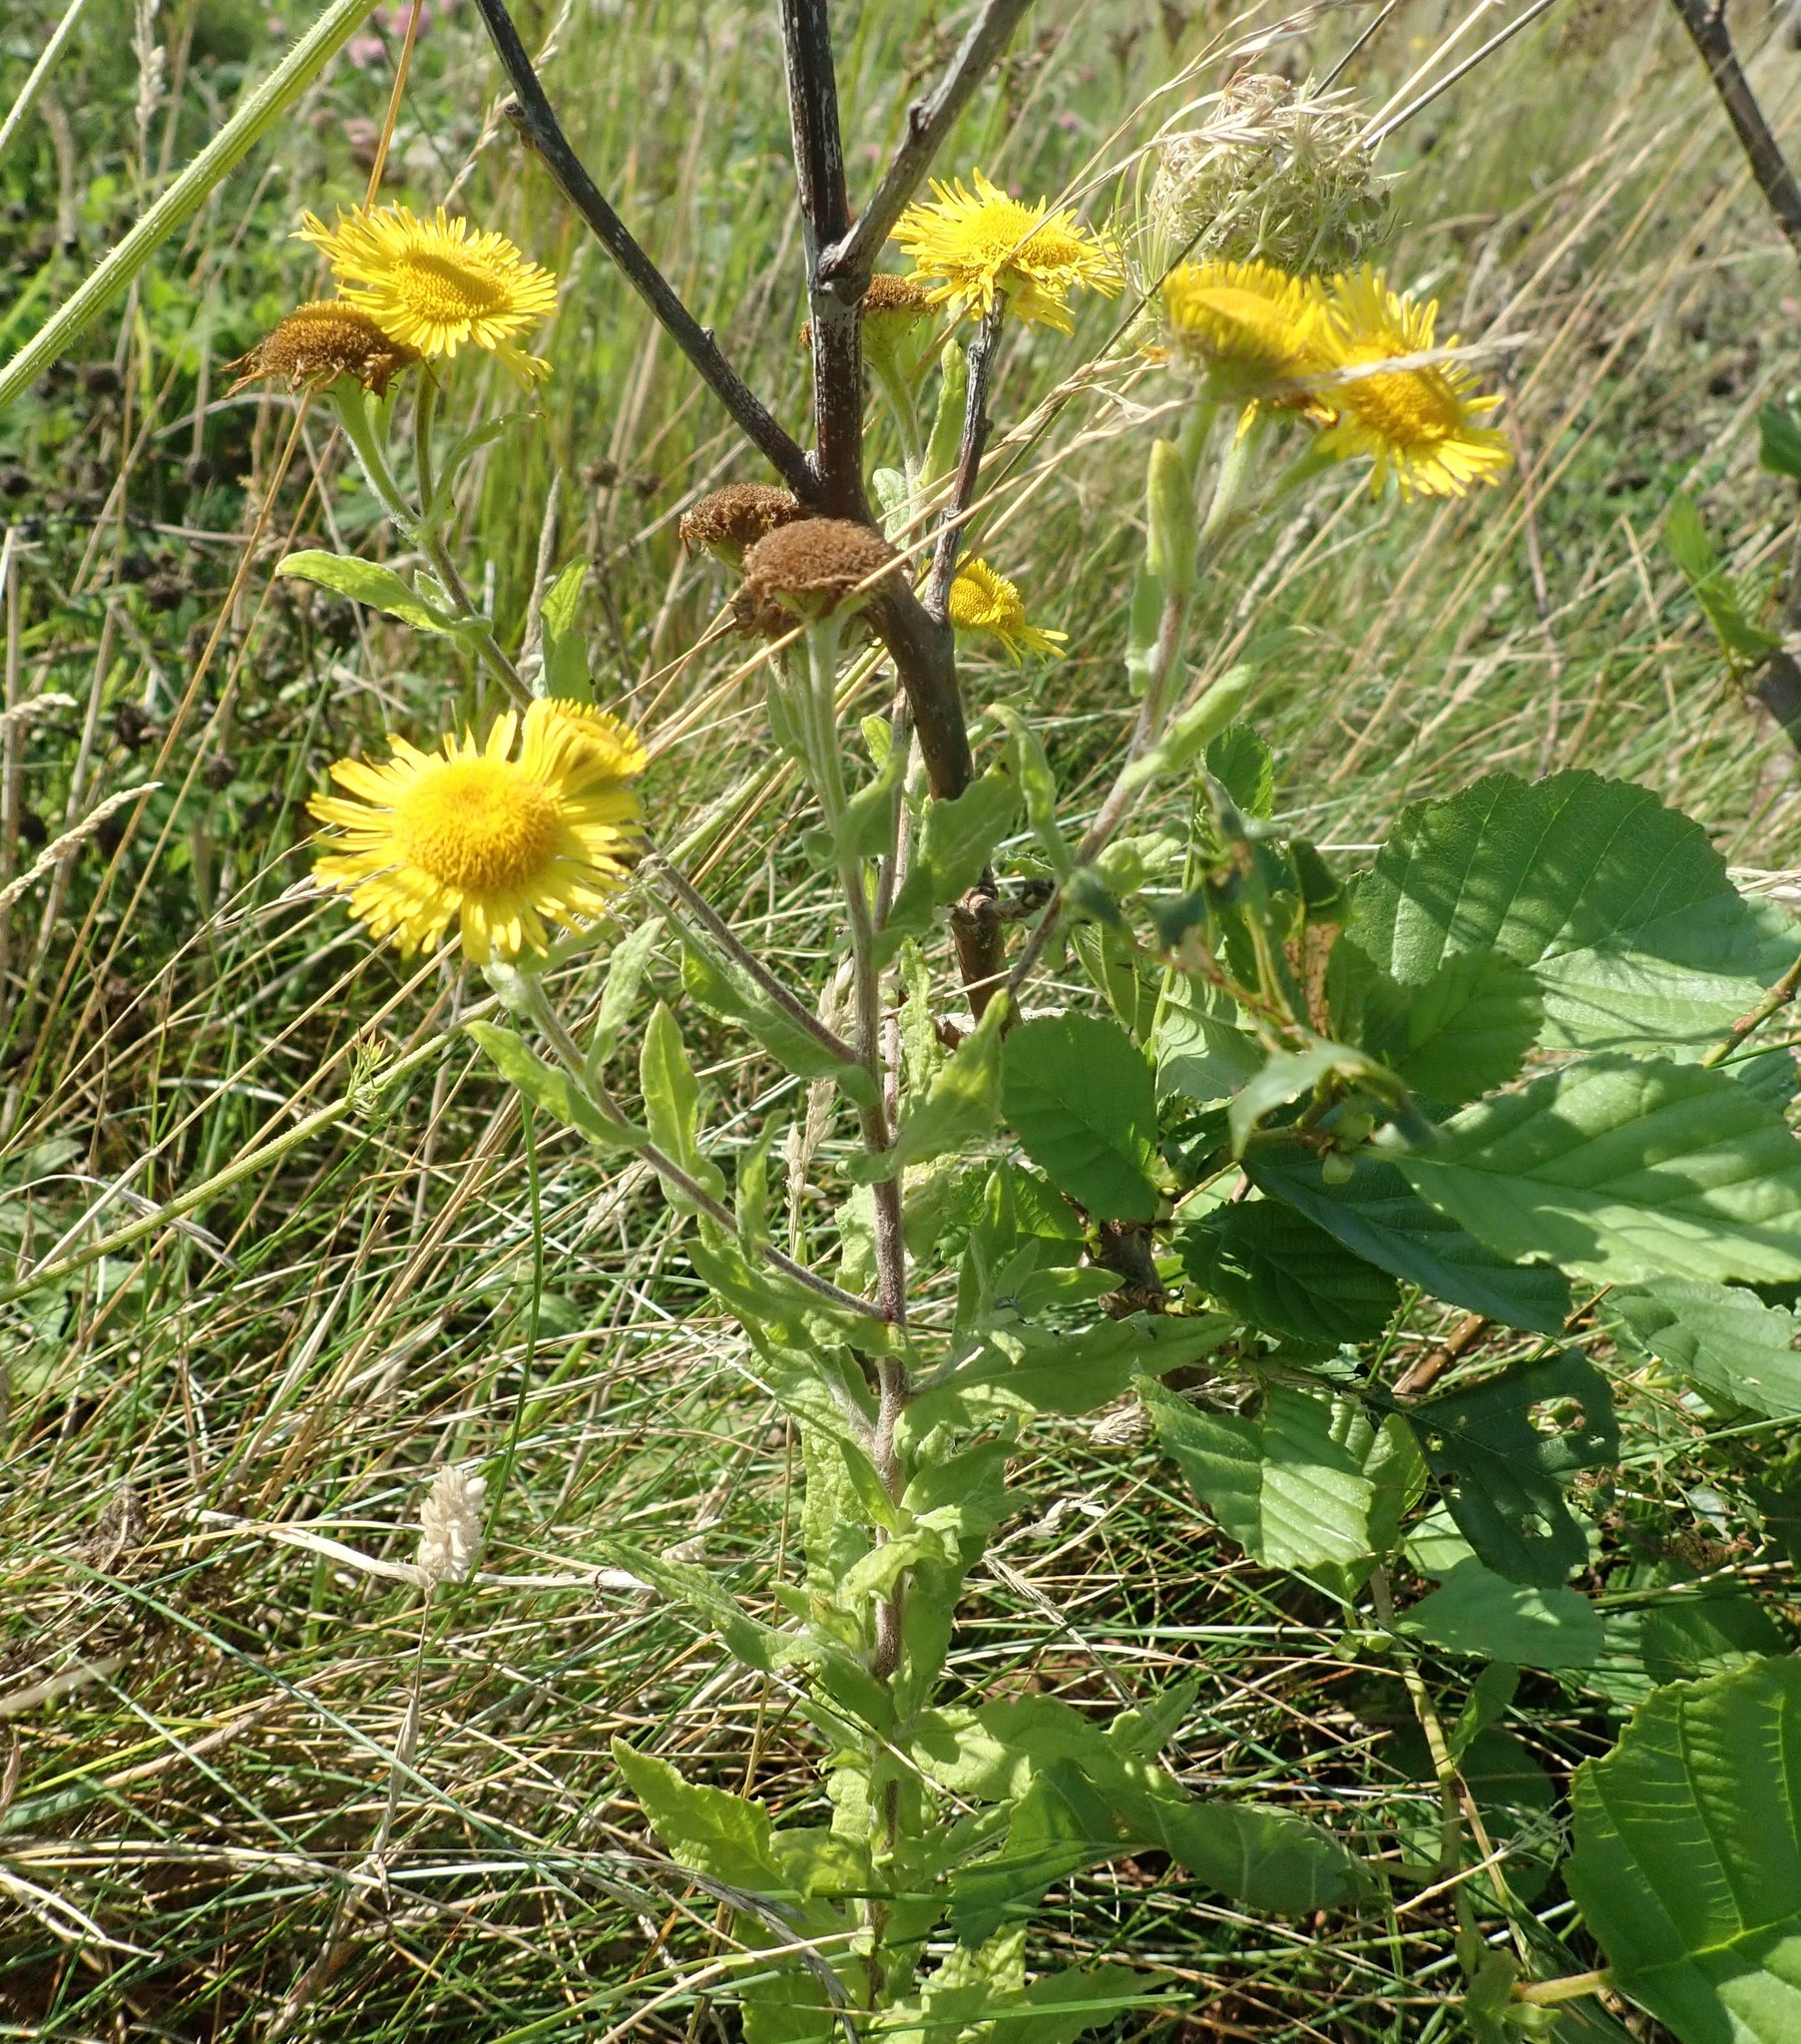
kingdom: Plantae
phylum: Tracheophyta
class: Magnoliopsida
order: Asterales
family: Asteraceae
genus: Pulicaria
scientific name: Pulicaria dysenterica
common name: Common fleabane
